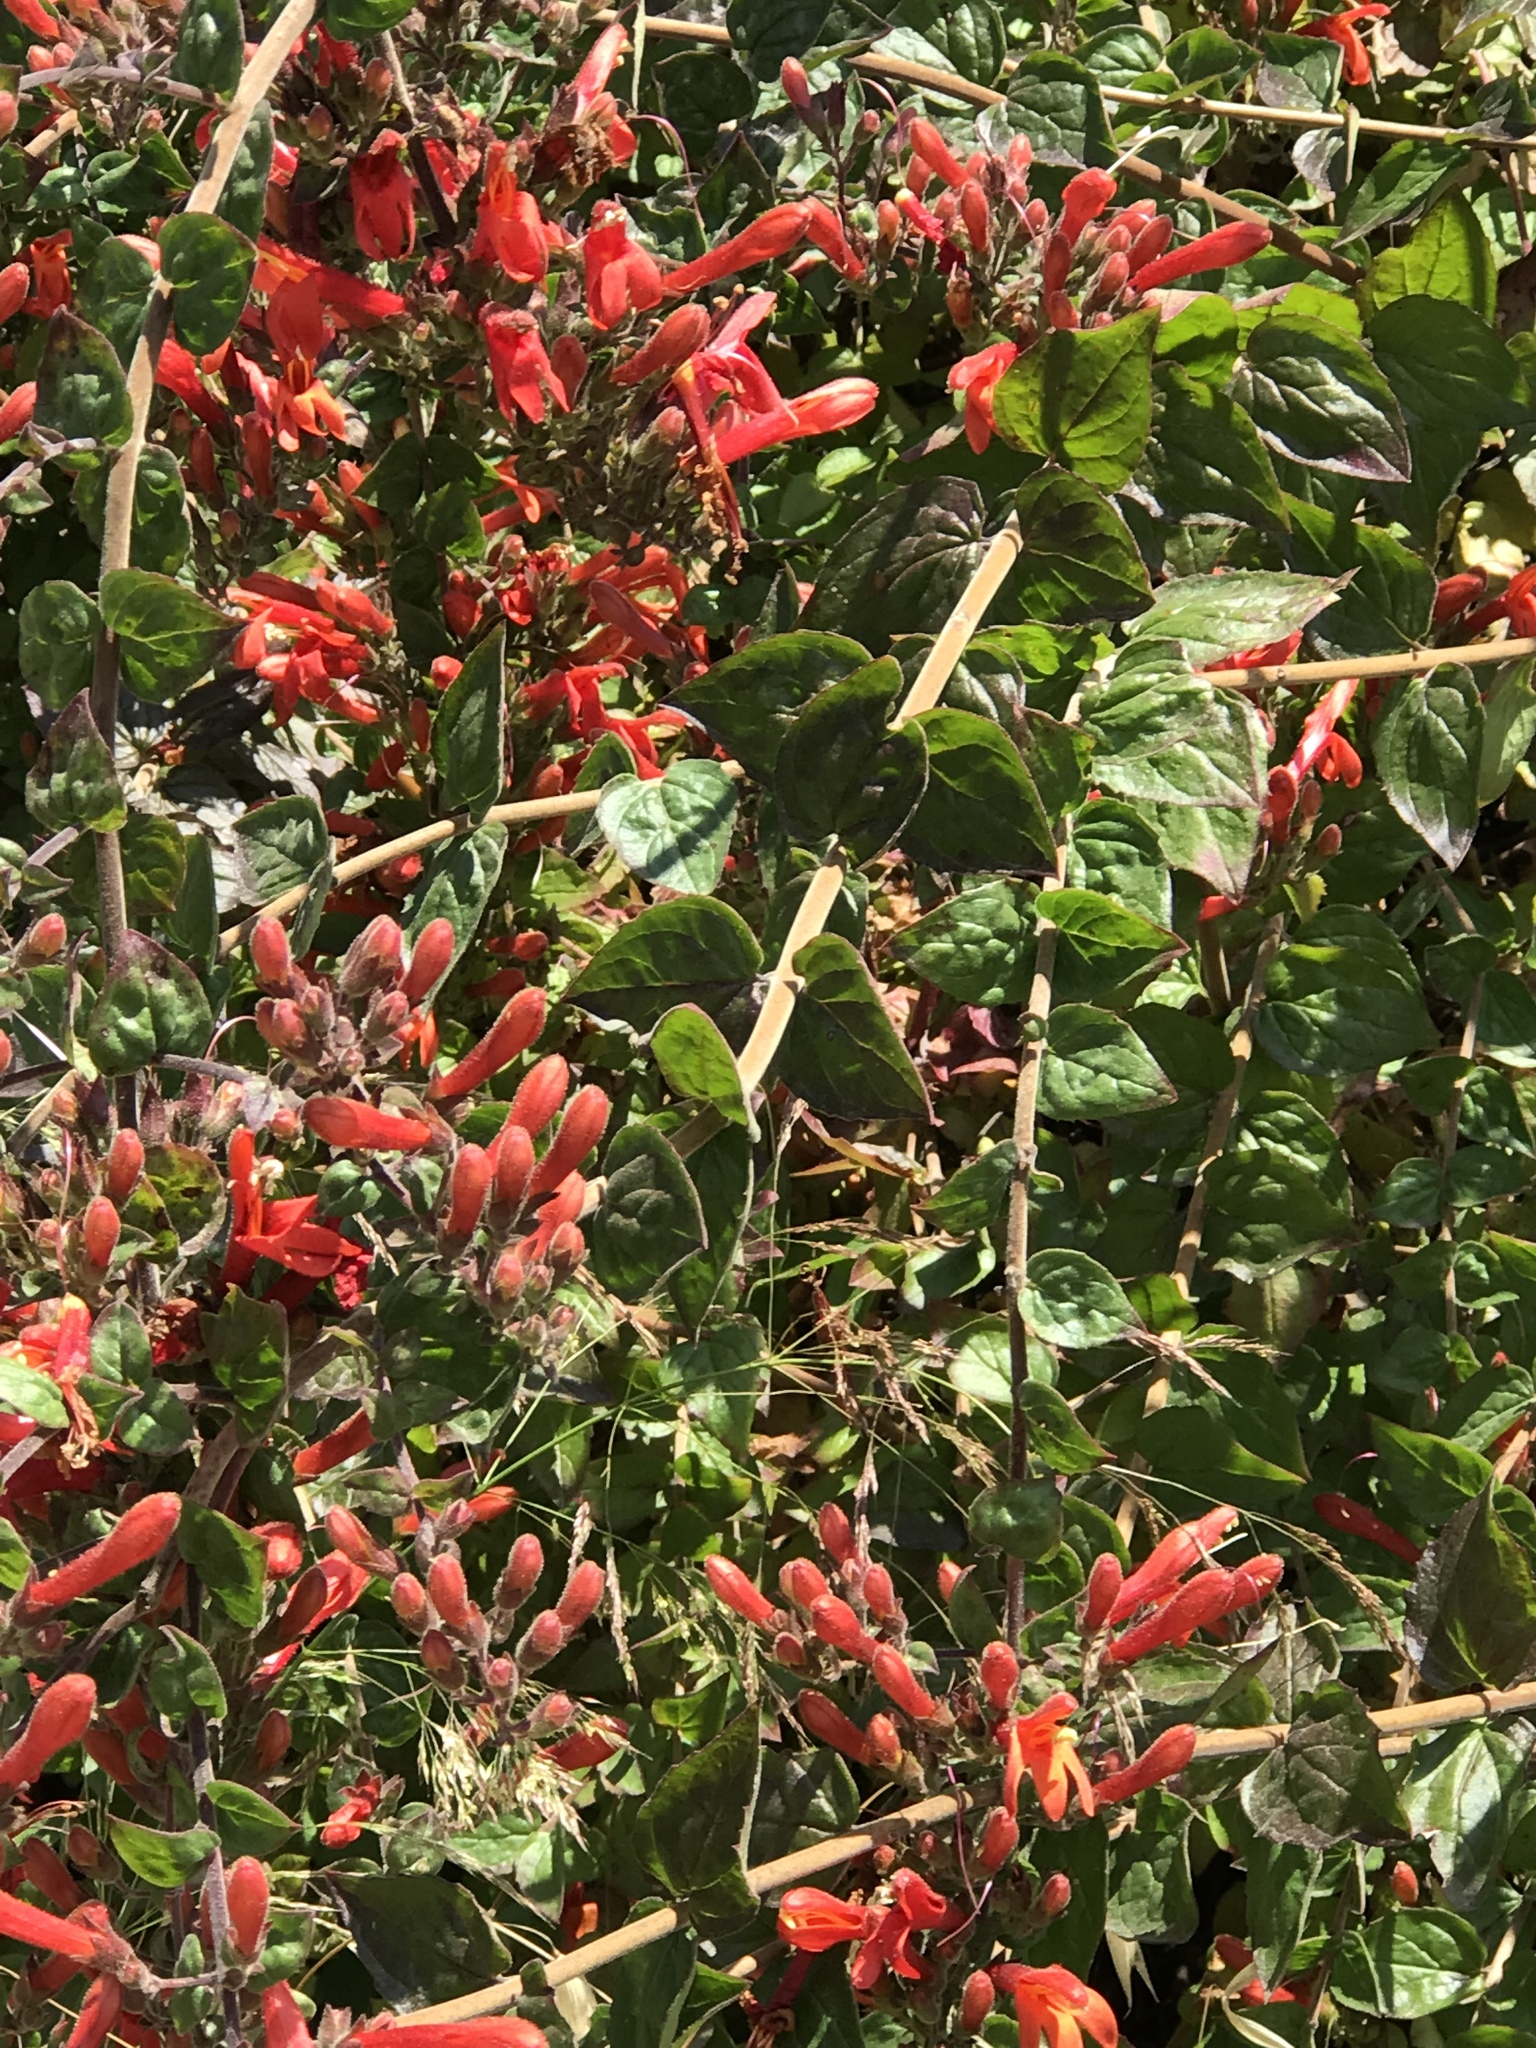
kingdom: Plantae
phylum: Tracheophyta
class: Magnoliopsida
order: Lamiales
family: Plantaginaceae
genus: Keckiella
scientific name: Keckiella cordifolia
